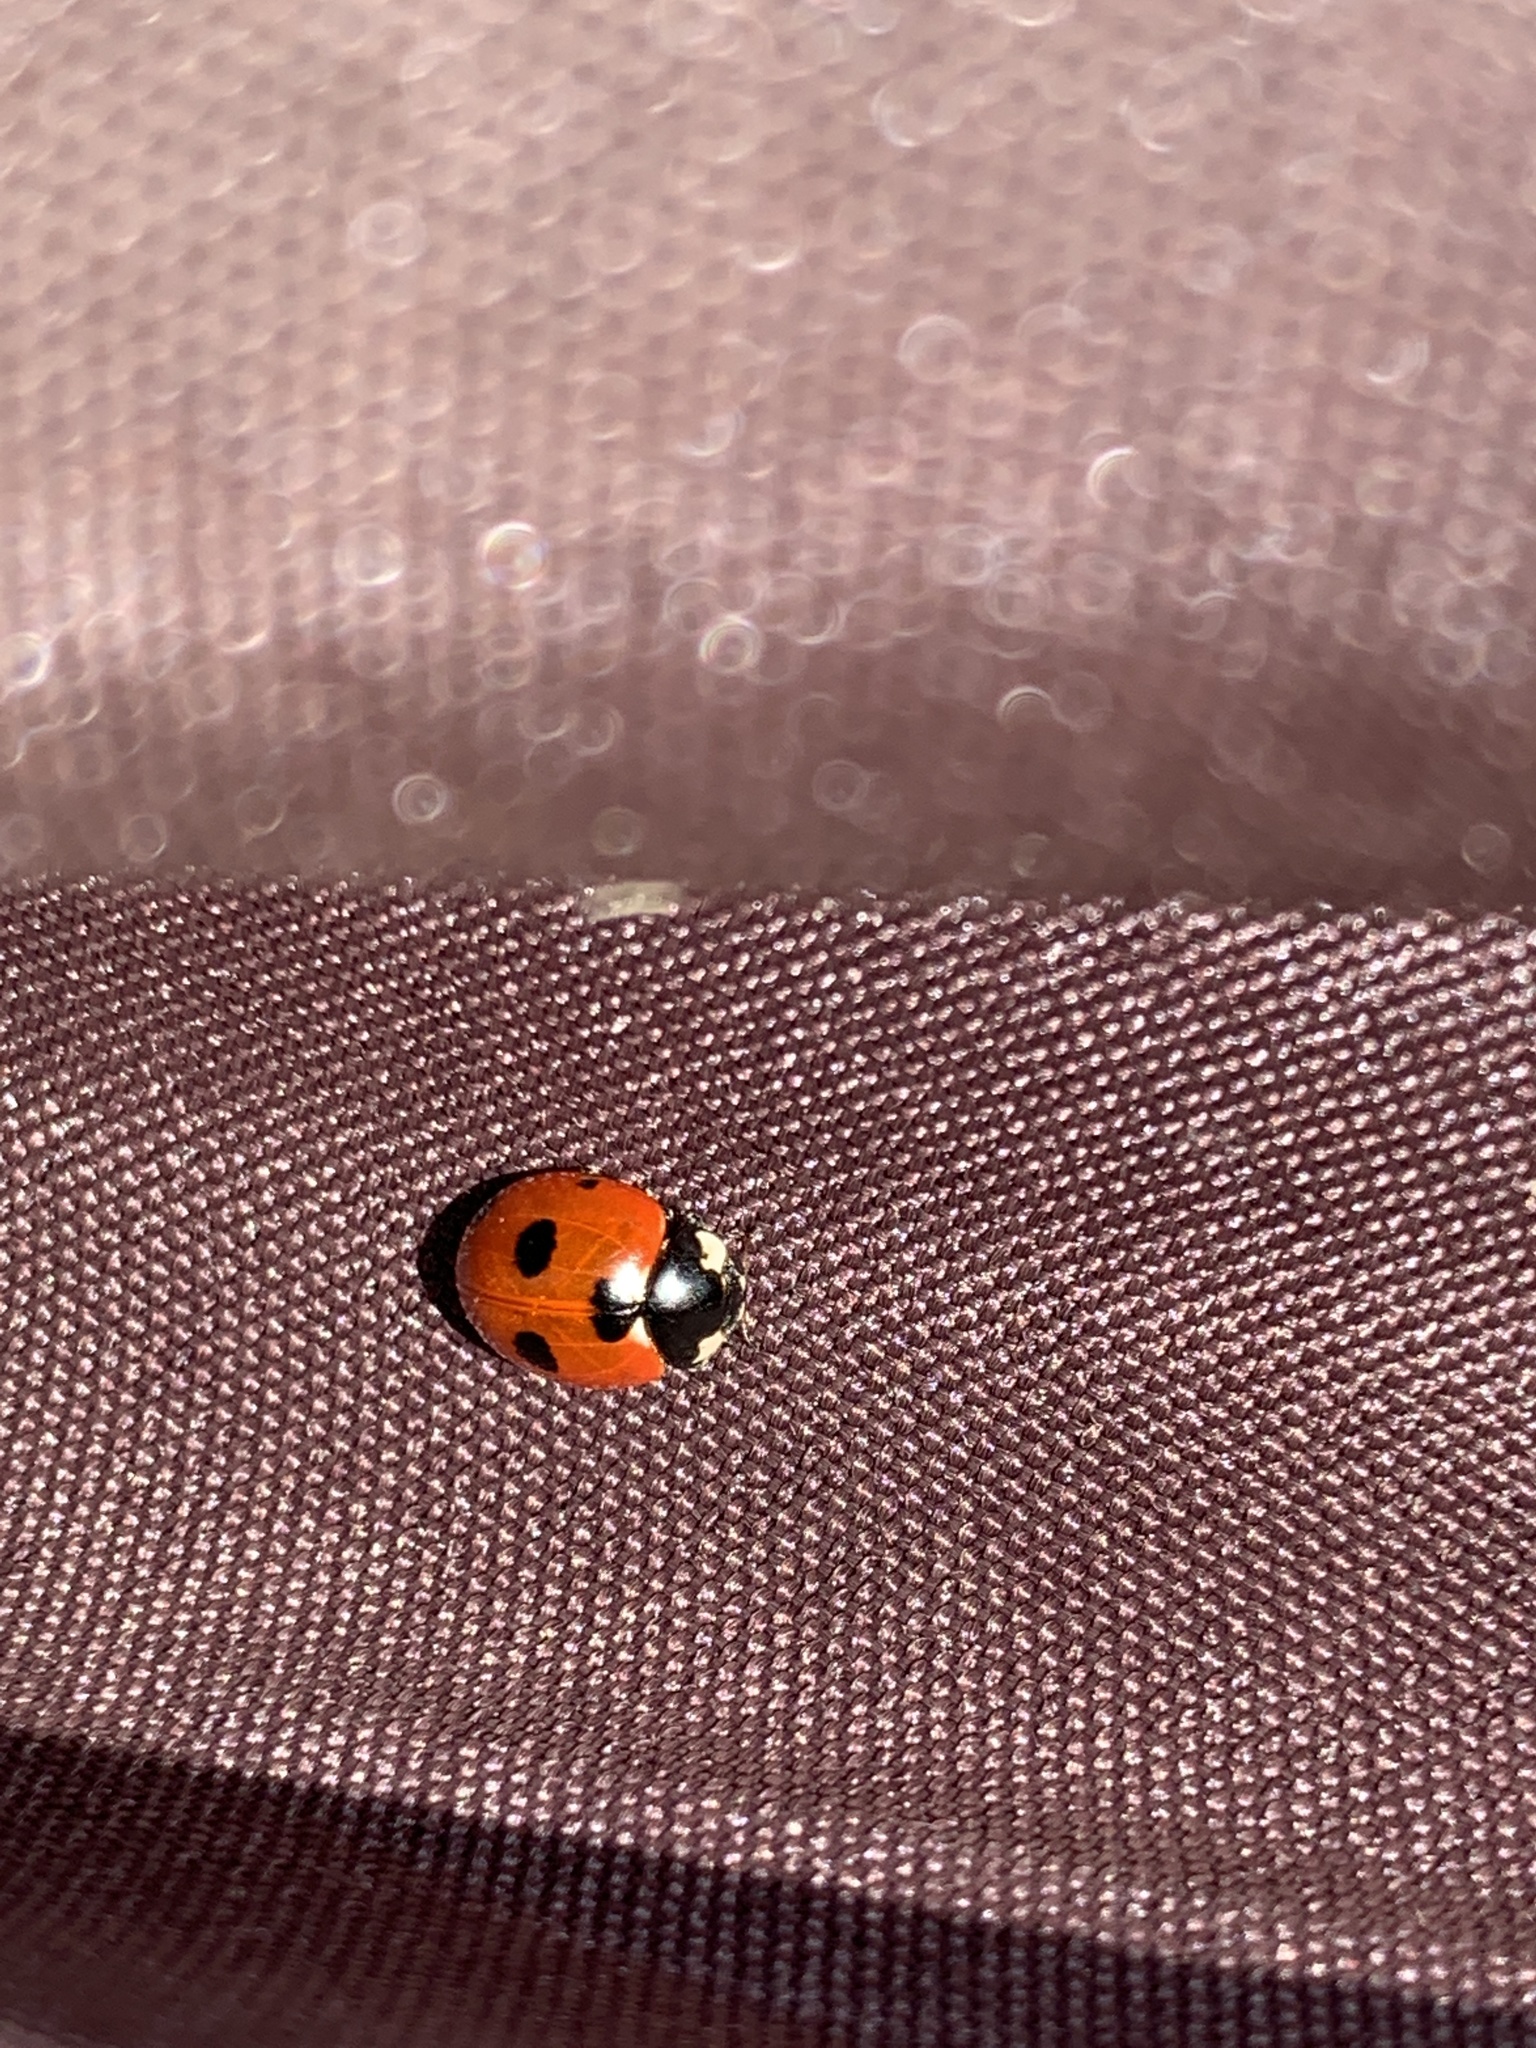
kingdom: Animalia
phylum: Arthropoda
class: Insecta
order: Coleoptera
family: Coccinellidae
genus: Coccinella
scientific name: Coccinella magnifica
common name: Scarce 7-spot ladybird
